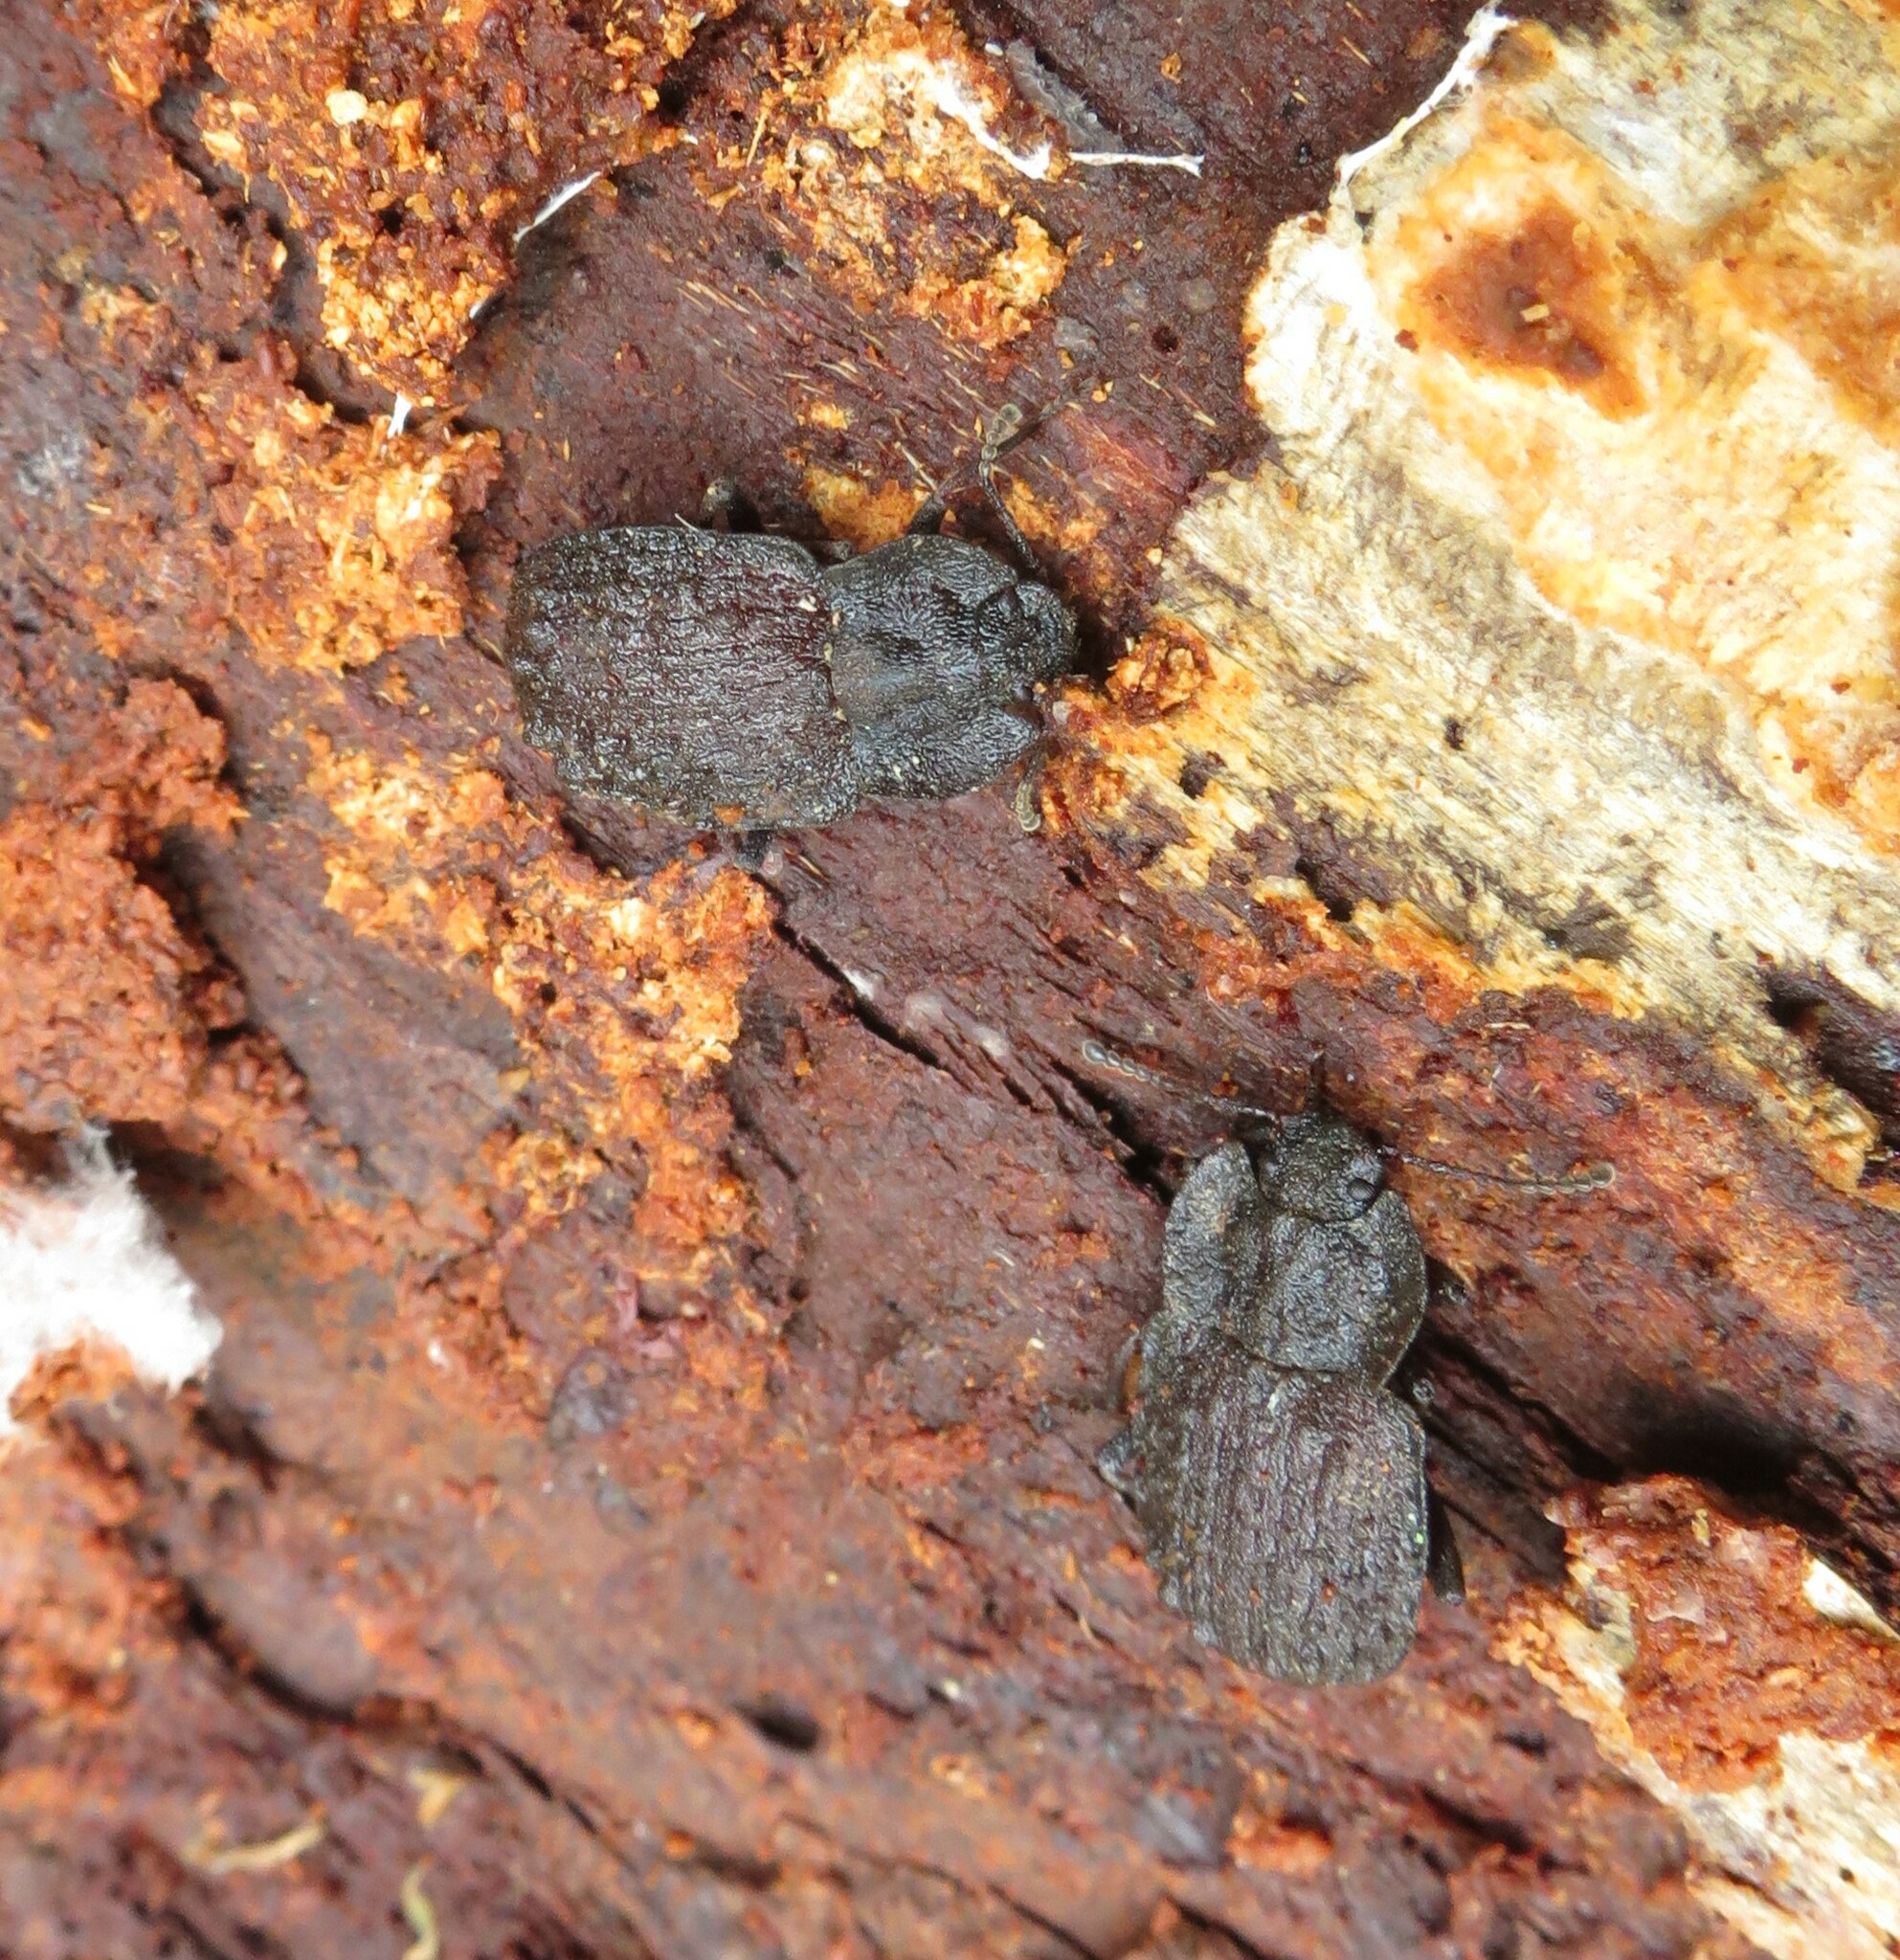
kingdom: Animalia
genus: Mitua
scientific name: Mitua
